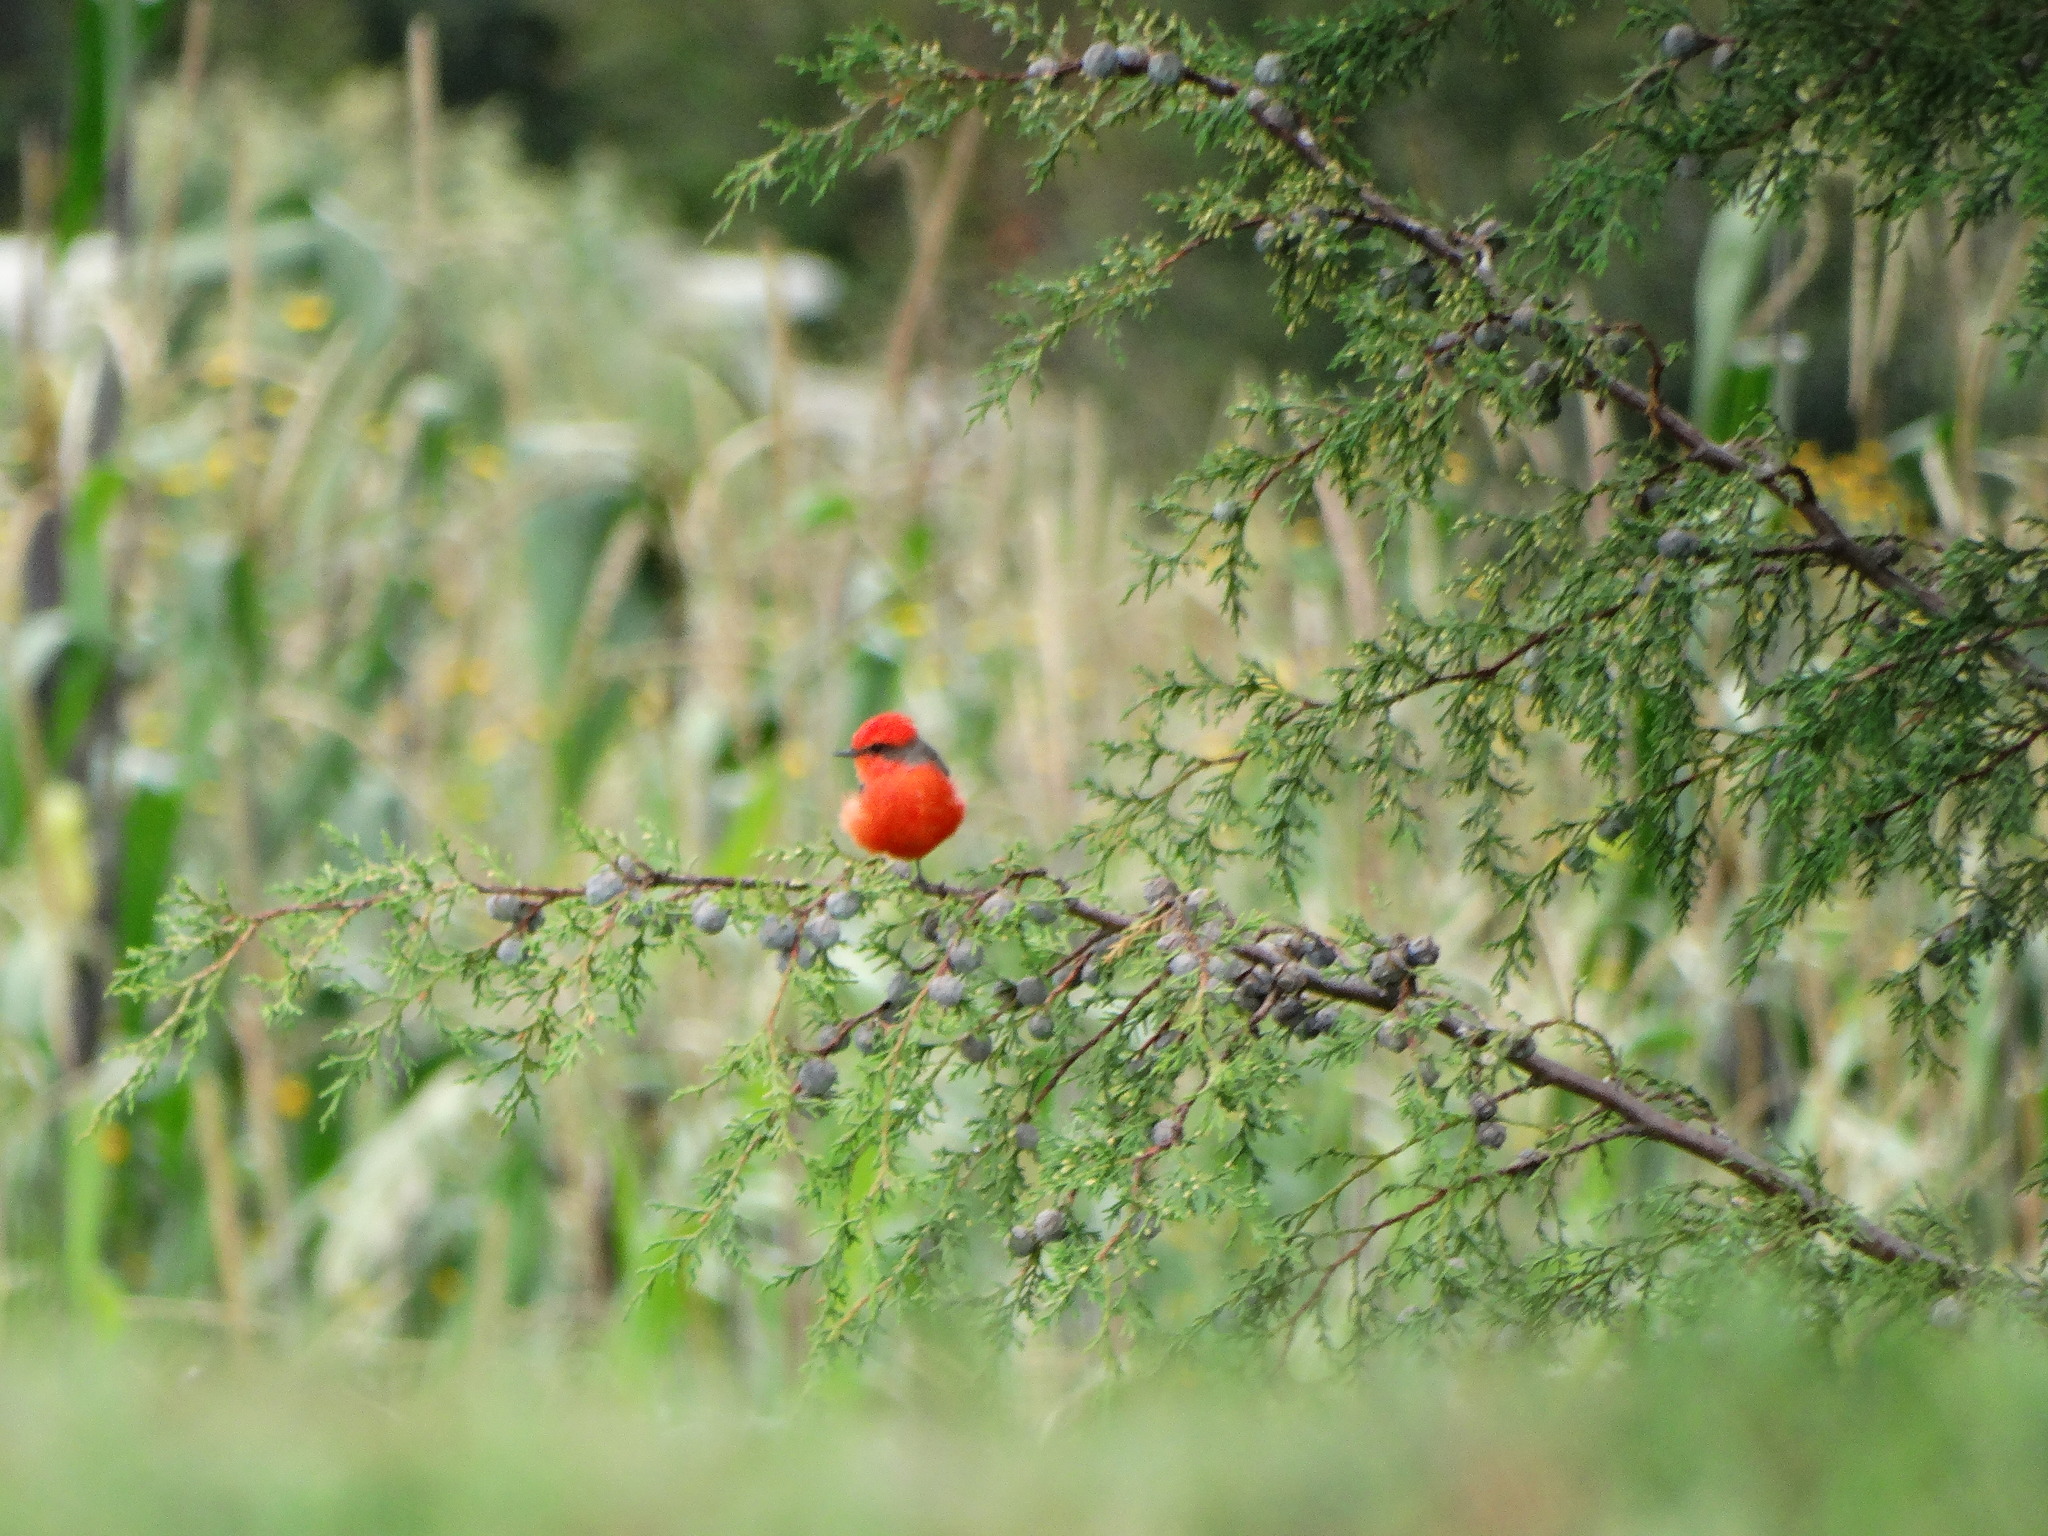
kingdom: Animalia
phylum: Chordata
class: Aves
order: Passeriformes
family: Tyrannidae
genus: Pyrocephalus
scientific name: Pyrocephalus rubinus
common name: Vermilion flycatcher
